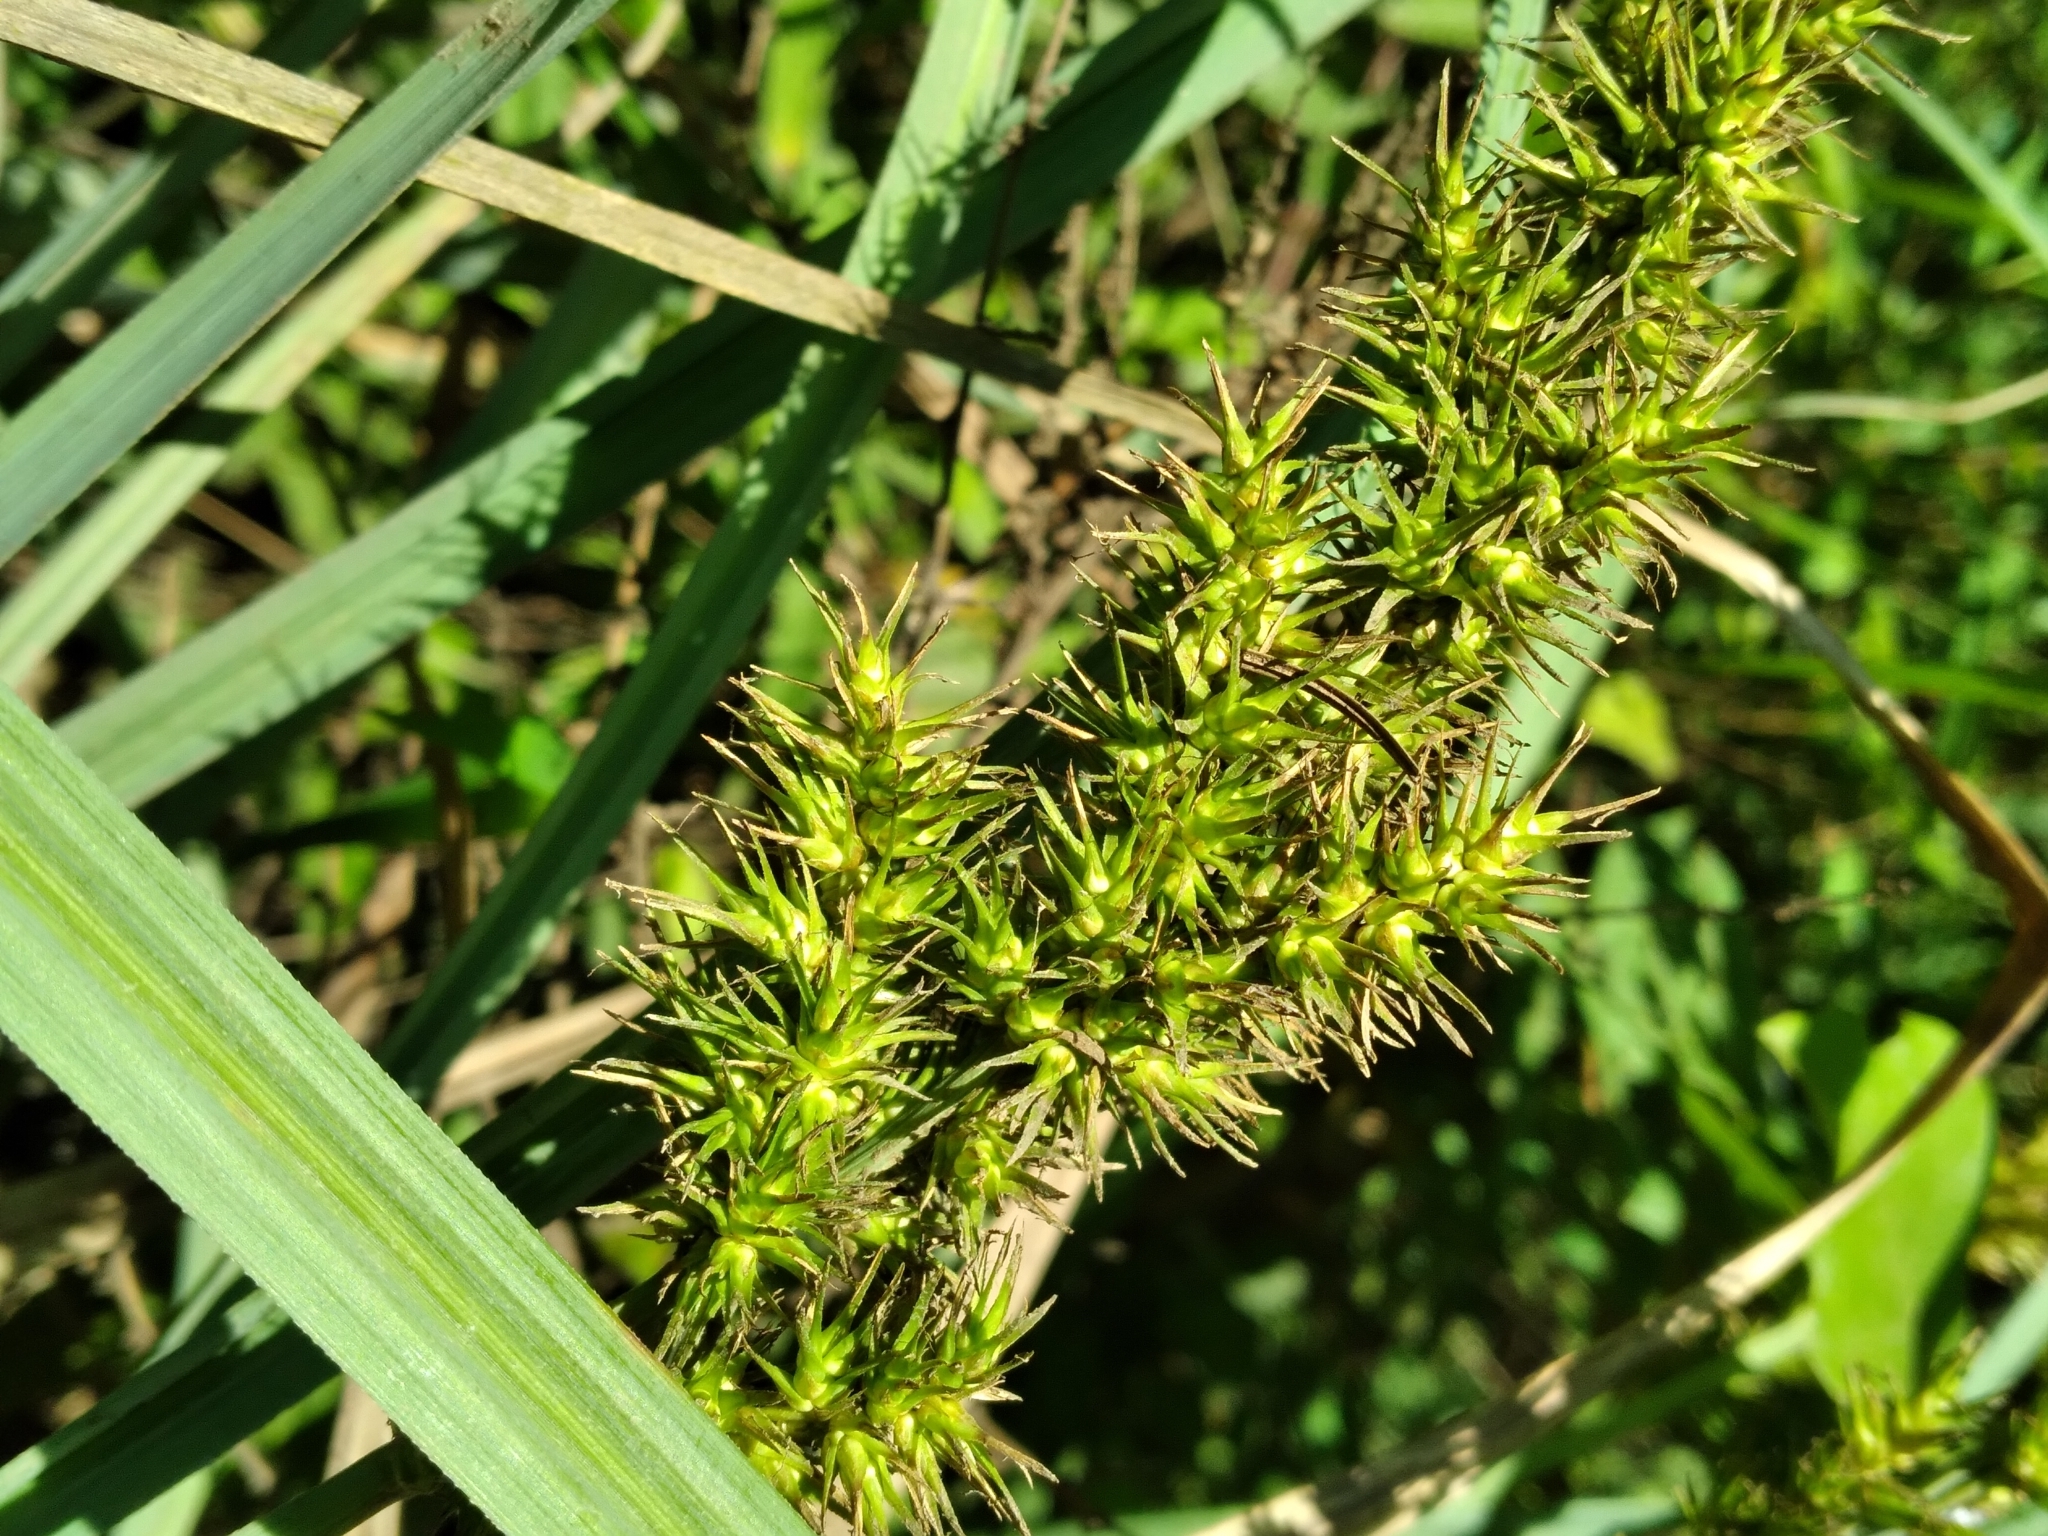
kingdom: Plantae
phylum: Tracheophyta
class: Liliopsida
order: Poales
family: Cyperaceae
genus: Carex
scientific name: Carex crus-corvi
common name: Crow-spur sedge
